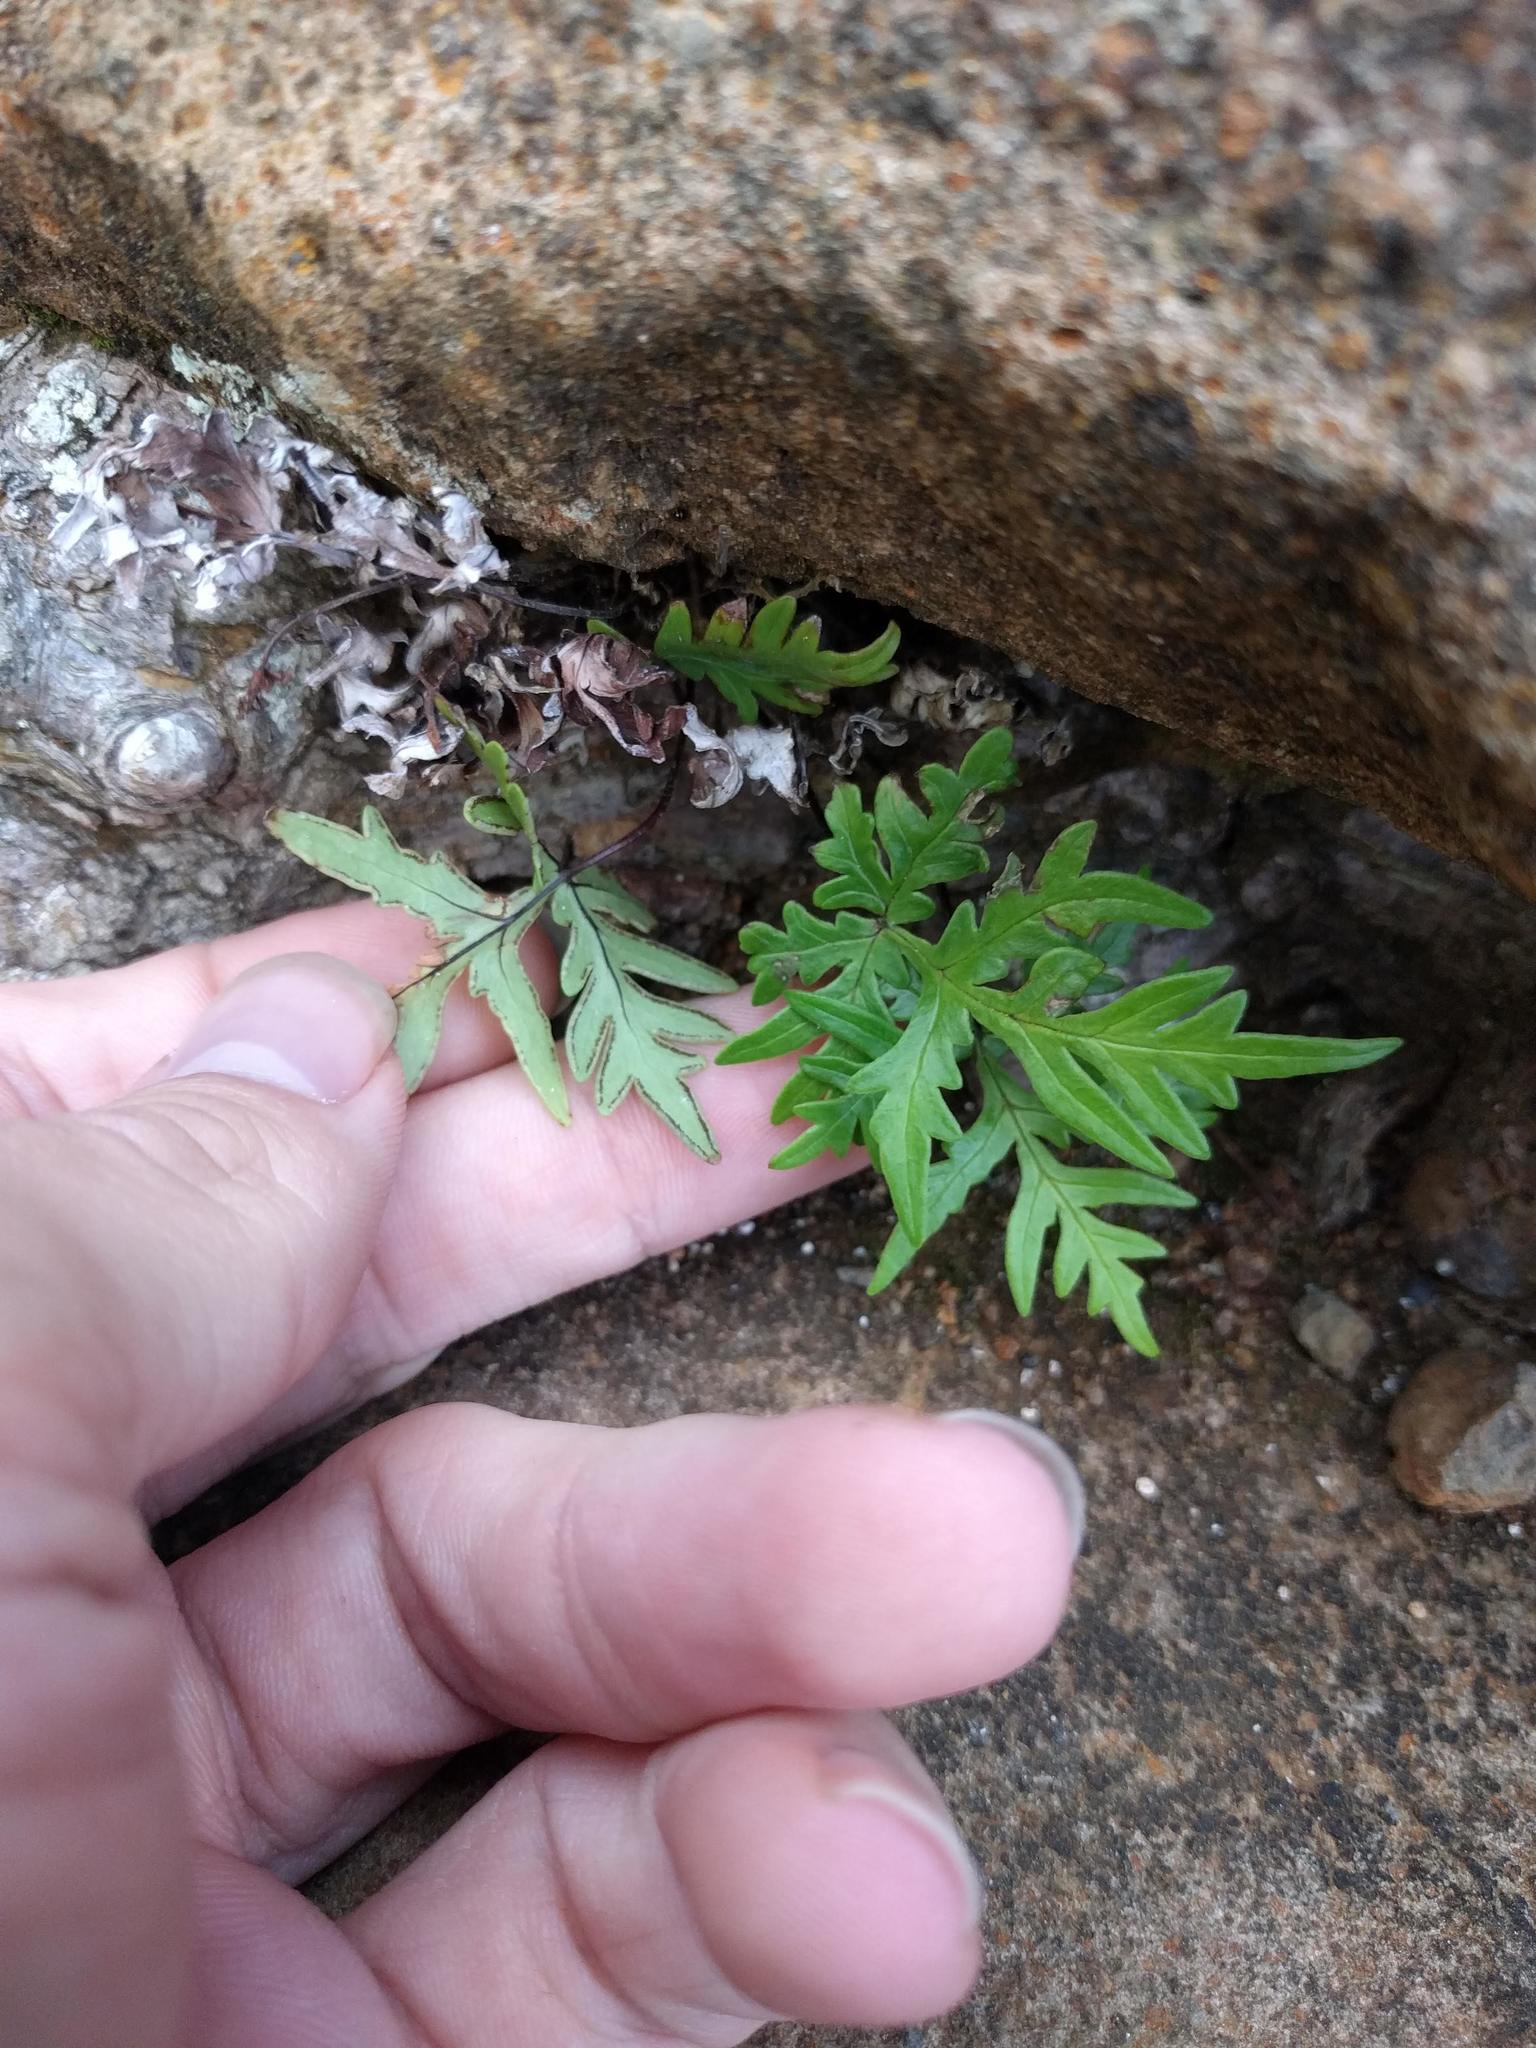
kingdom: Plantae
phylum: Tracheophyta
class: Polypodiopsida
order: Polypodiales
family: Pteridaceae
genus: Doryopteris
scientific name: Doryopteris decipiens
